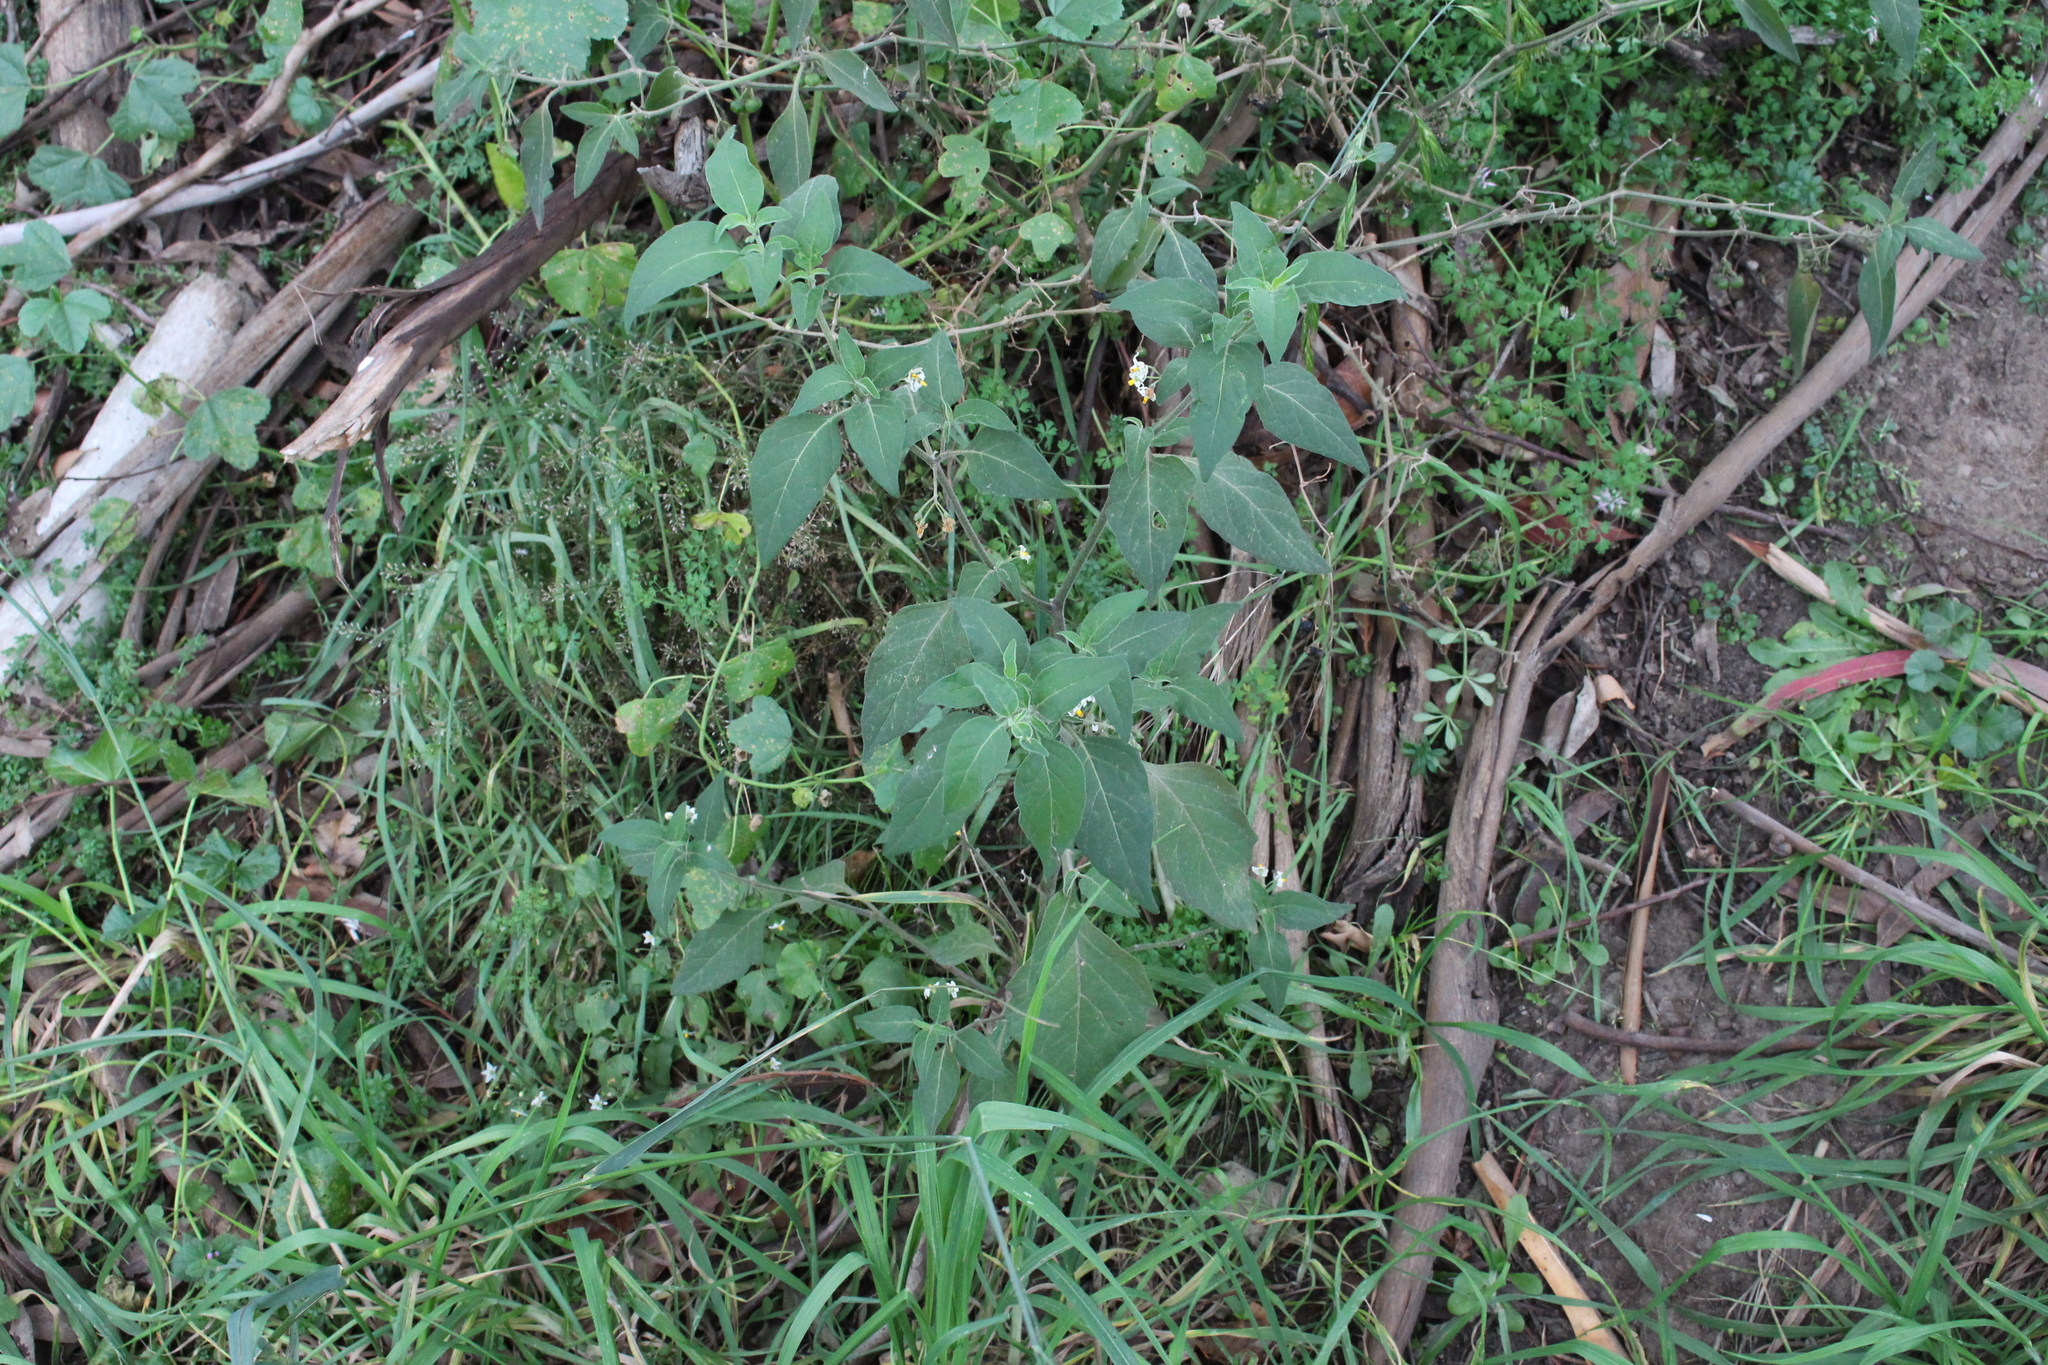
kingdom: Plantae
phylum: Tracheophyta
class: Magnoliopsida
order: Solanales
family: Solanaceae
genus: Solanum
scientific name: Solanum chenopodioides
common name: Tall nightshade
